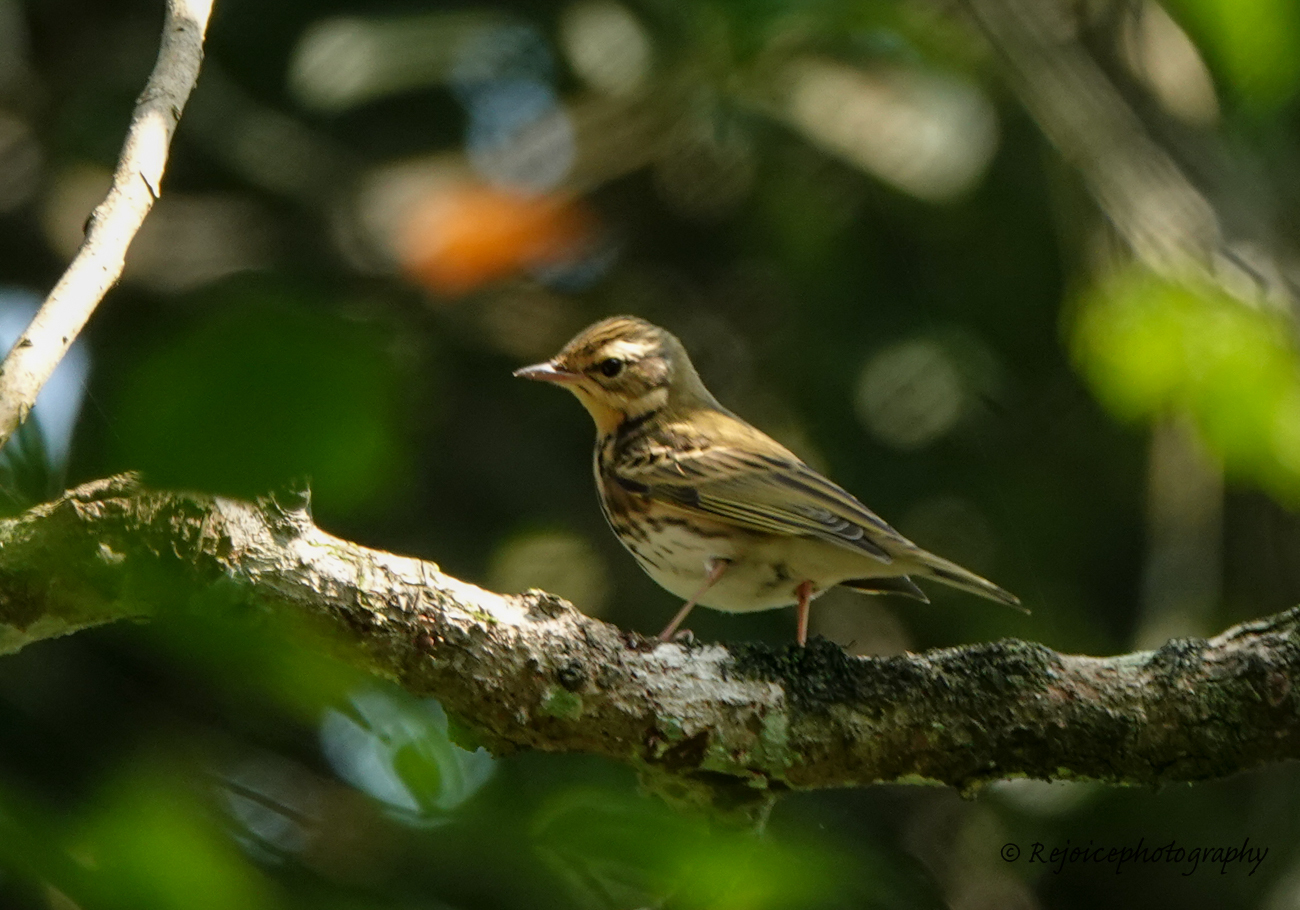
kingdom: Animalia
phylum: Chordata
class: Aves
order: Passeriformes
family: Motacillidae
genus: Anthus
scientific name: Anthus hodgsoni
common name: Olive-backed pipit
